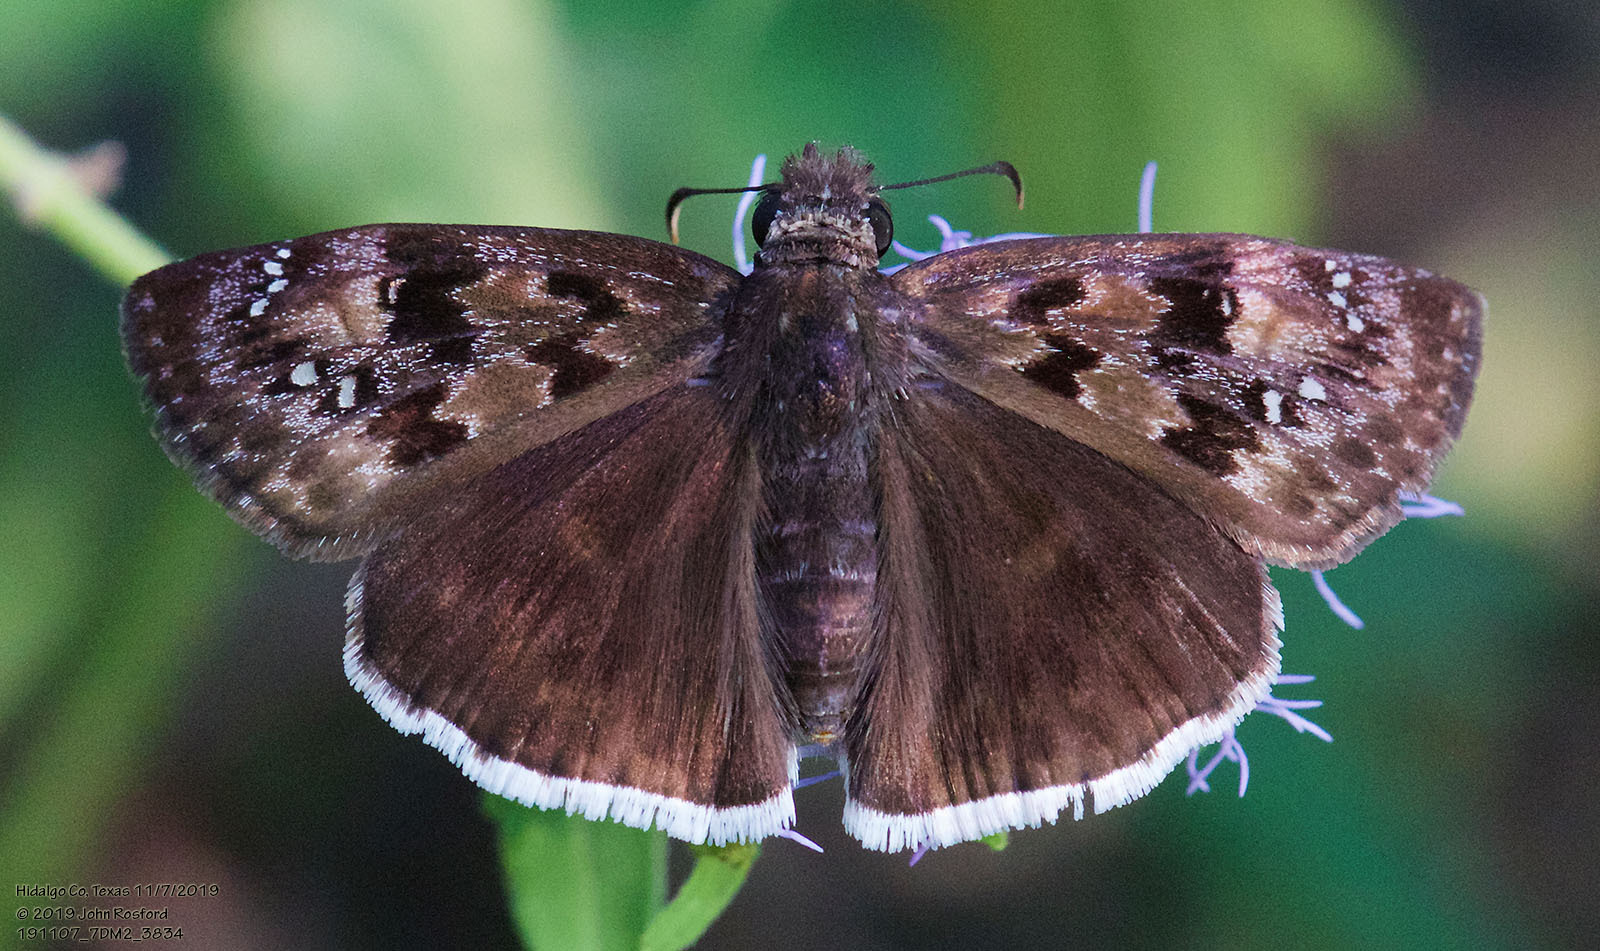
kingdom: Animalia
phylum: Arthropoda
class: Insecta
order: Lepidoptera
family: Hesperiidae
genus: Erynnis
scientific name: Erynnis tristis
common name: Mournful duskywing
